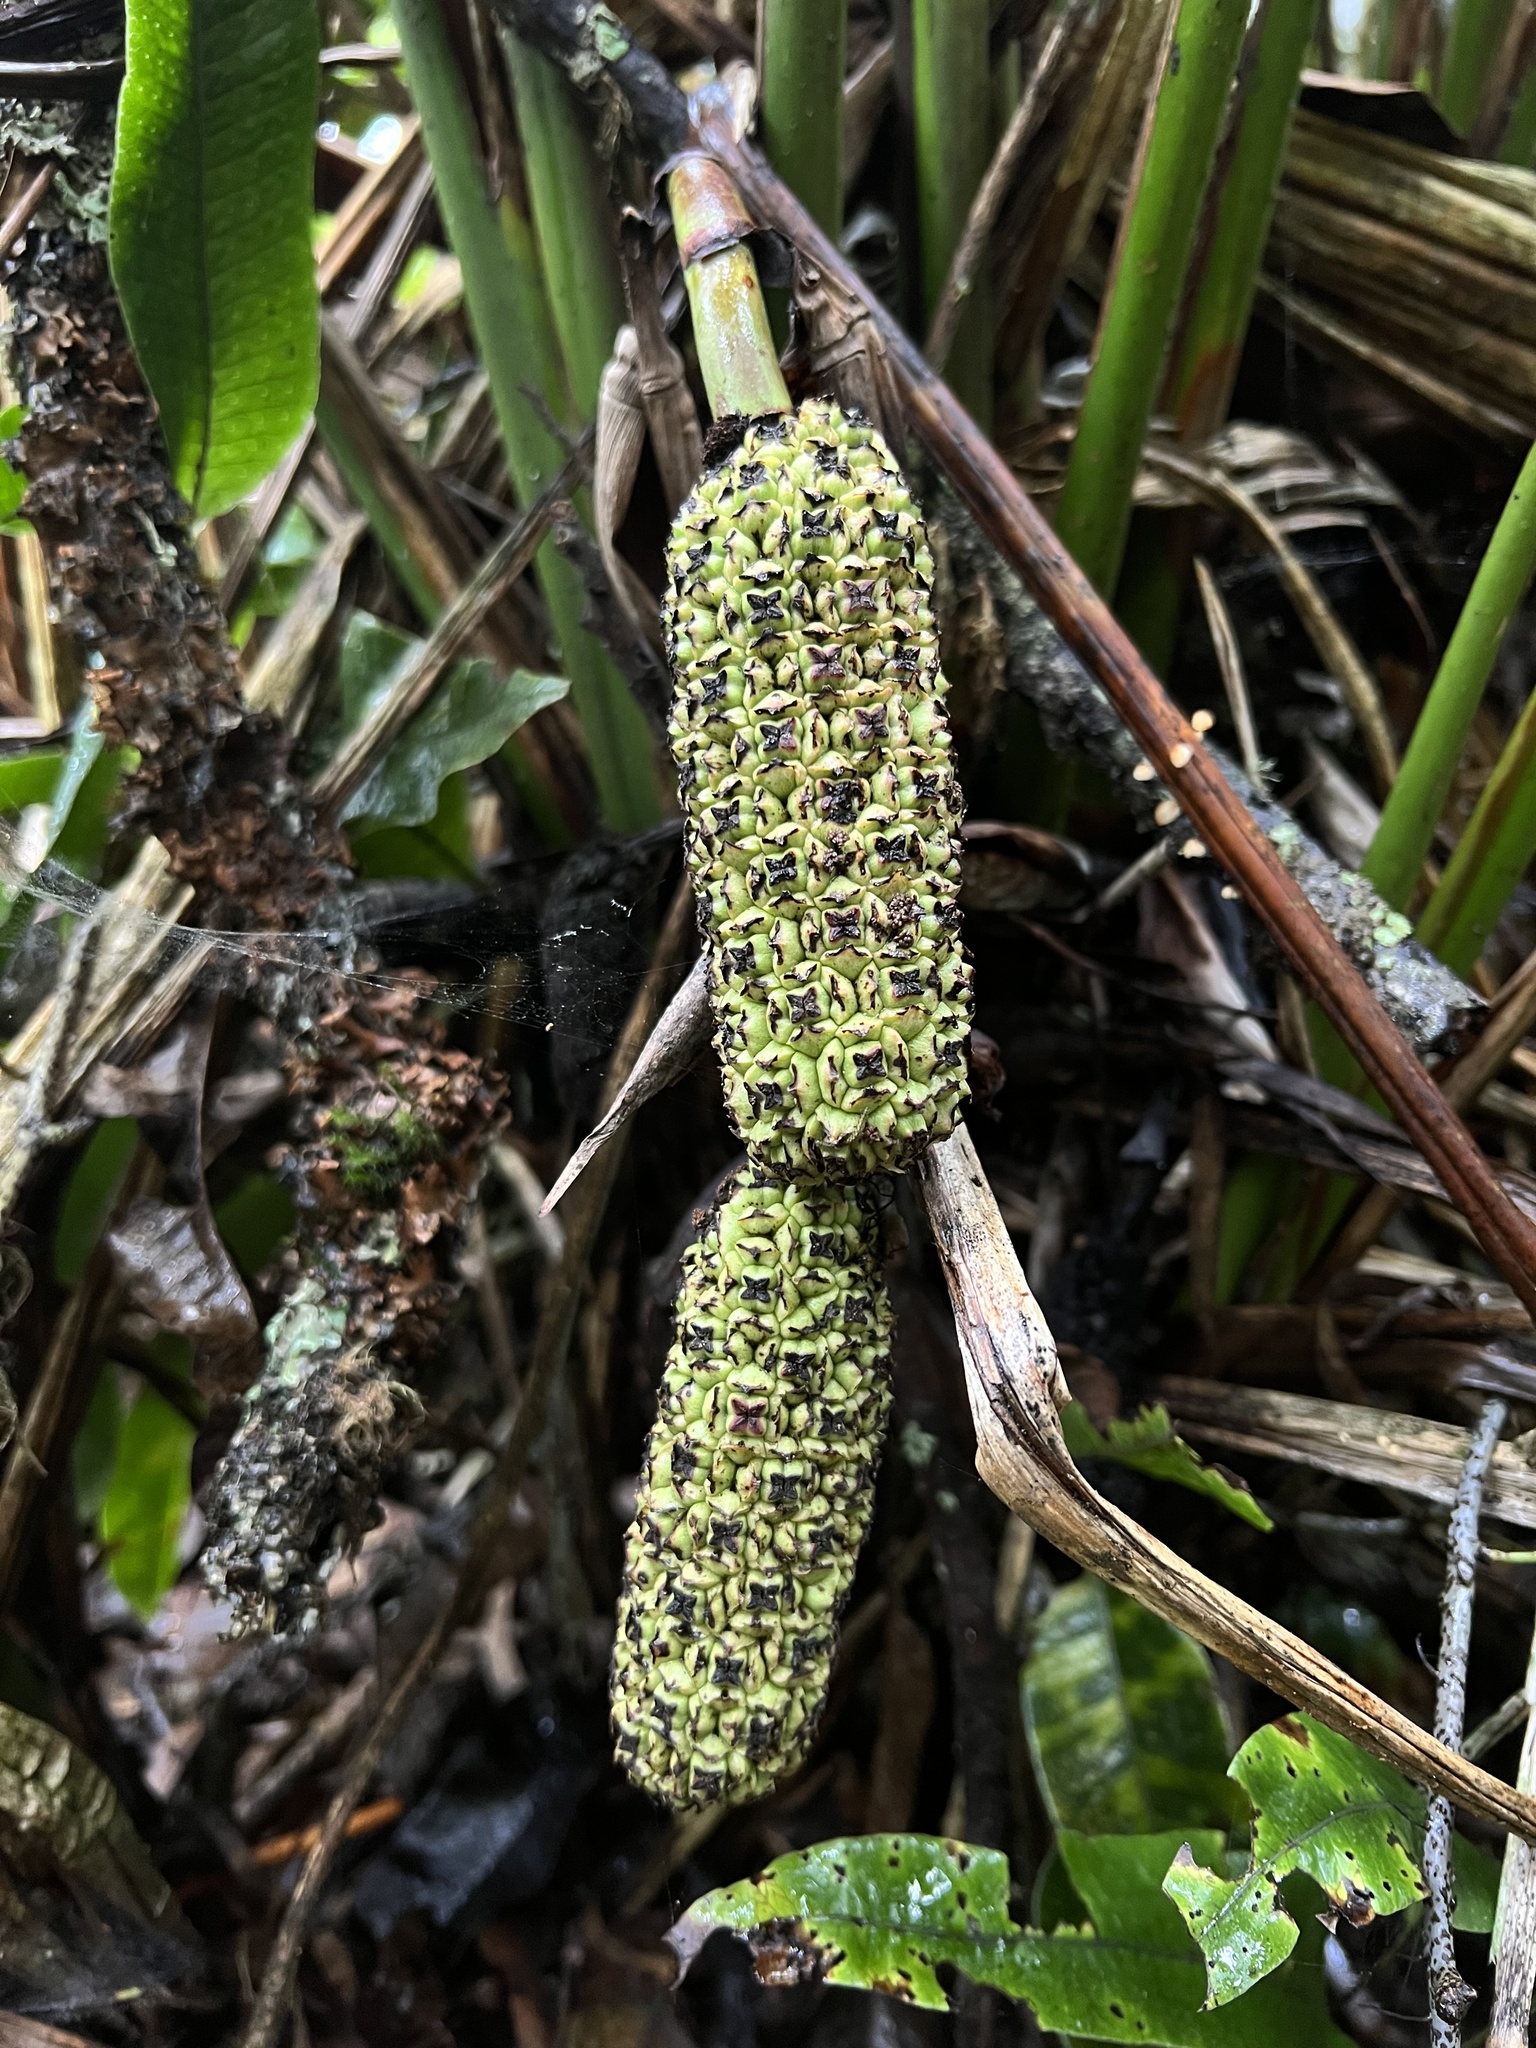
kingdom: Plantae
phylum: Tracheophyta
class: Liliopsida
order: Pandanales
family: Cyclanthaceae
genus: Sphaeradenia
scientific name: Sphaeradenia laucheana
